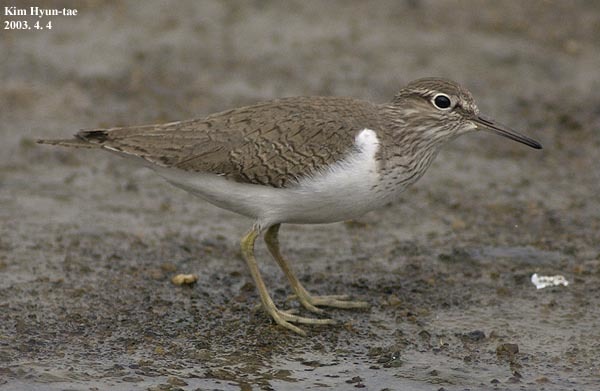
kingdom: Animalia
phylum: Chordata
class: Aves
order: Charadriiformes
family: Scolopacidae
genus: Actitis
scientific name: Actitis hypoleucos
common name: Common sandpiper
